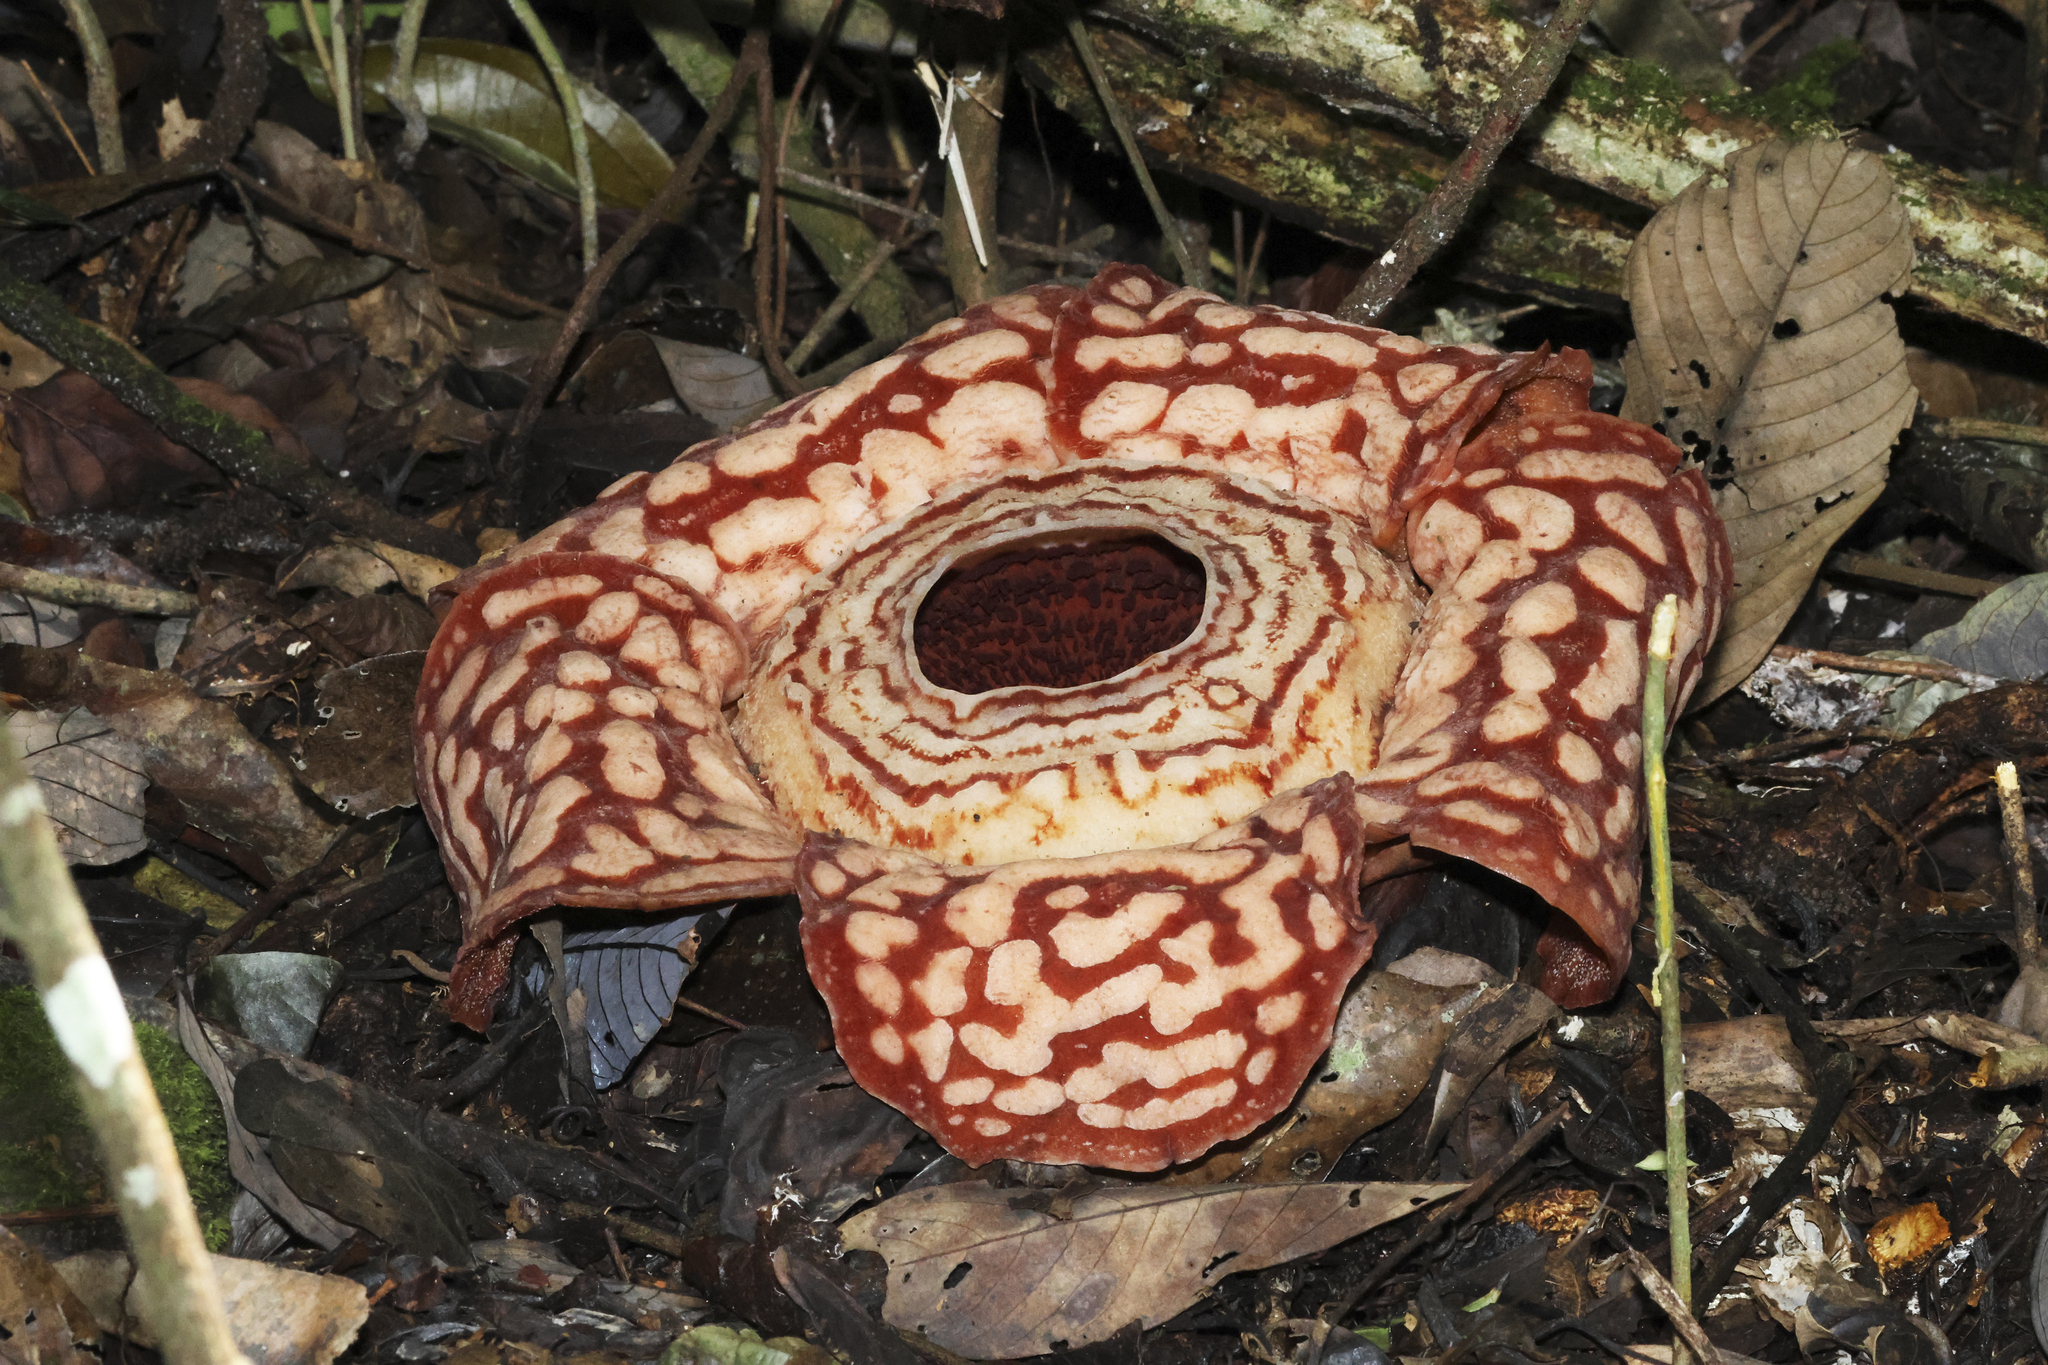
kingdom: Plantae
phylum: Tracheophyta
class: Magnoliopsida
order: Malpighiales
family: Rafflesiaceae
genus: Rafflesia
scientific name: Rafflesia pricei
